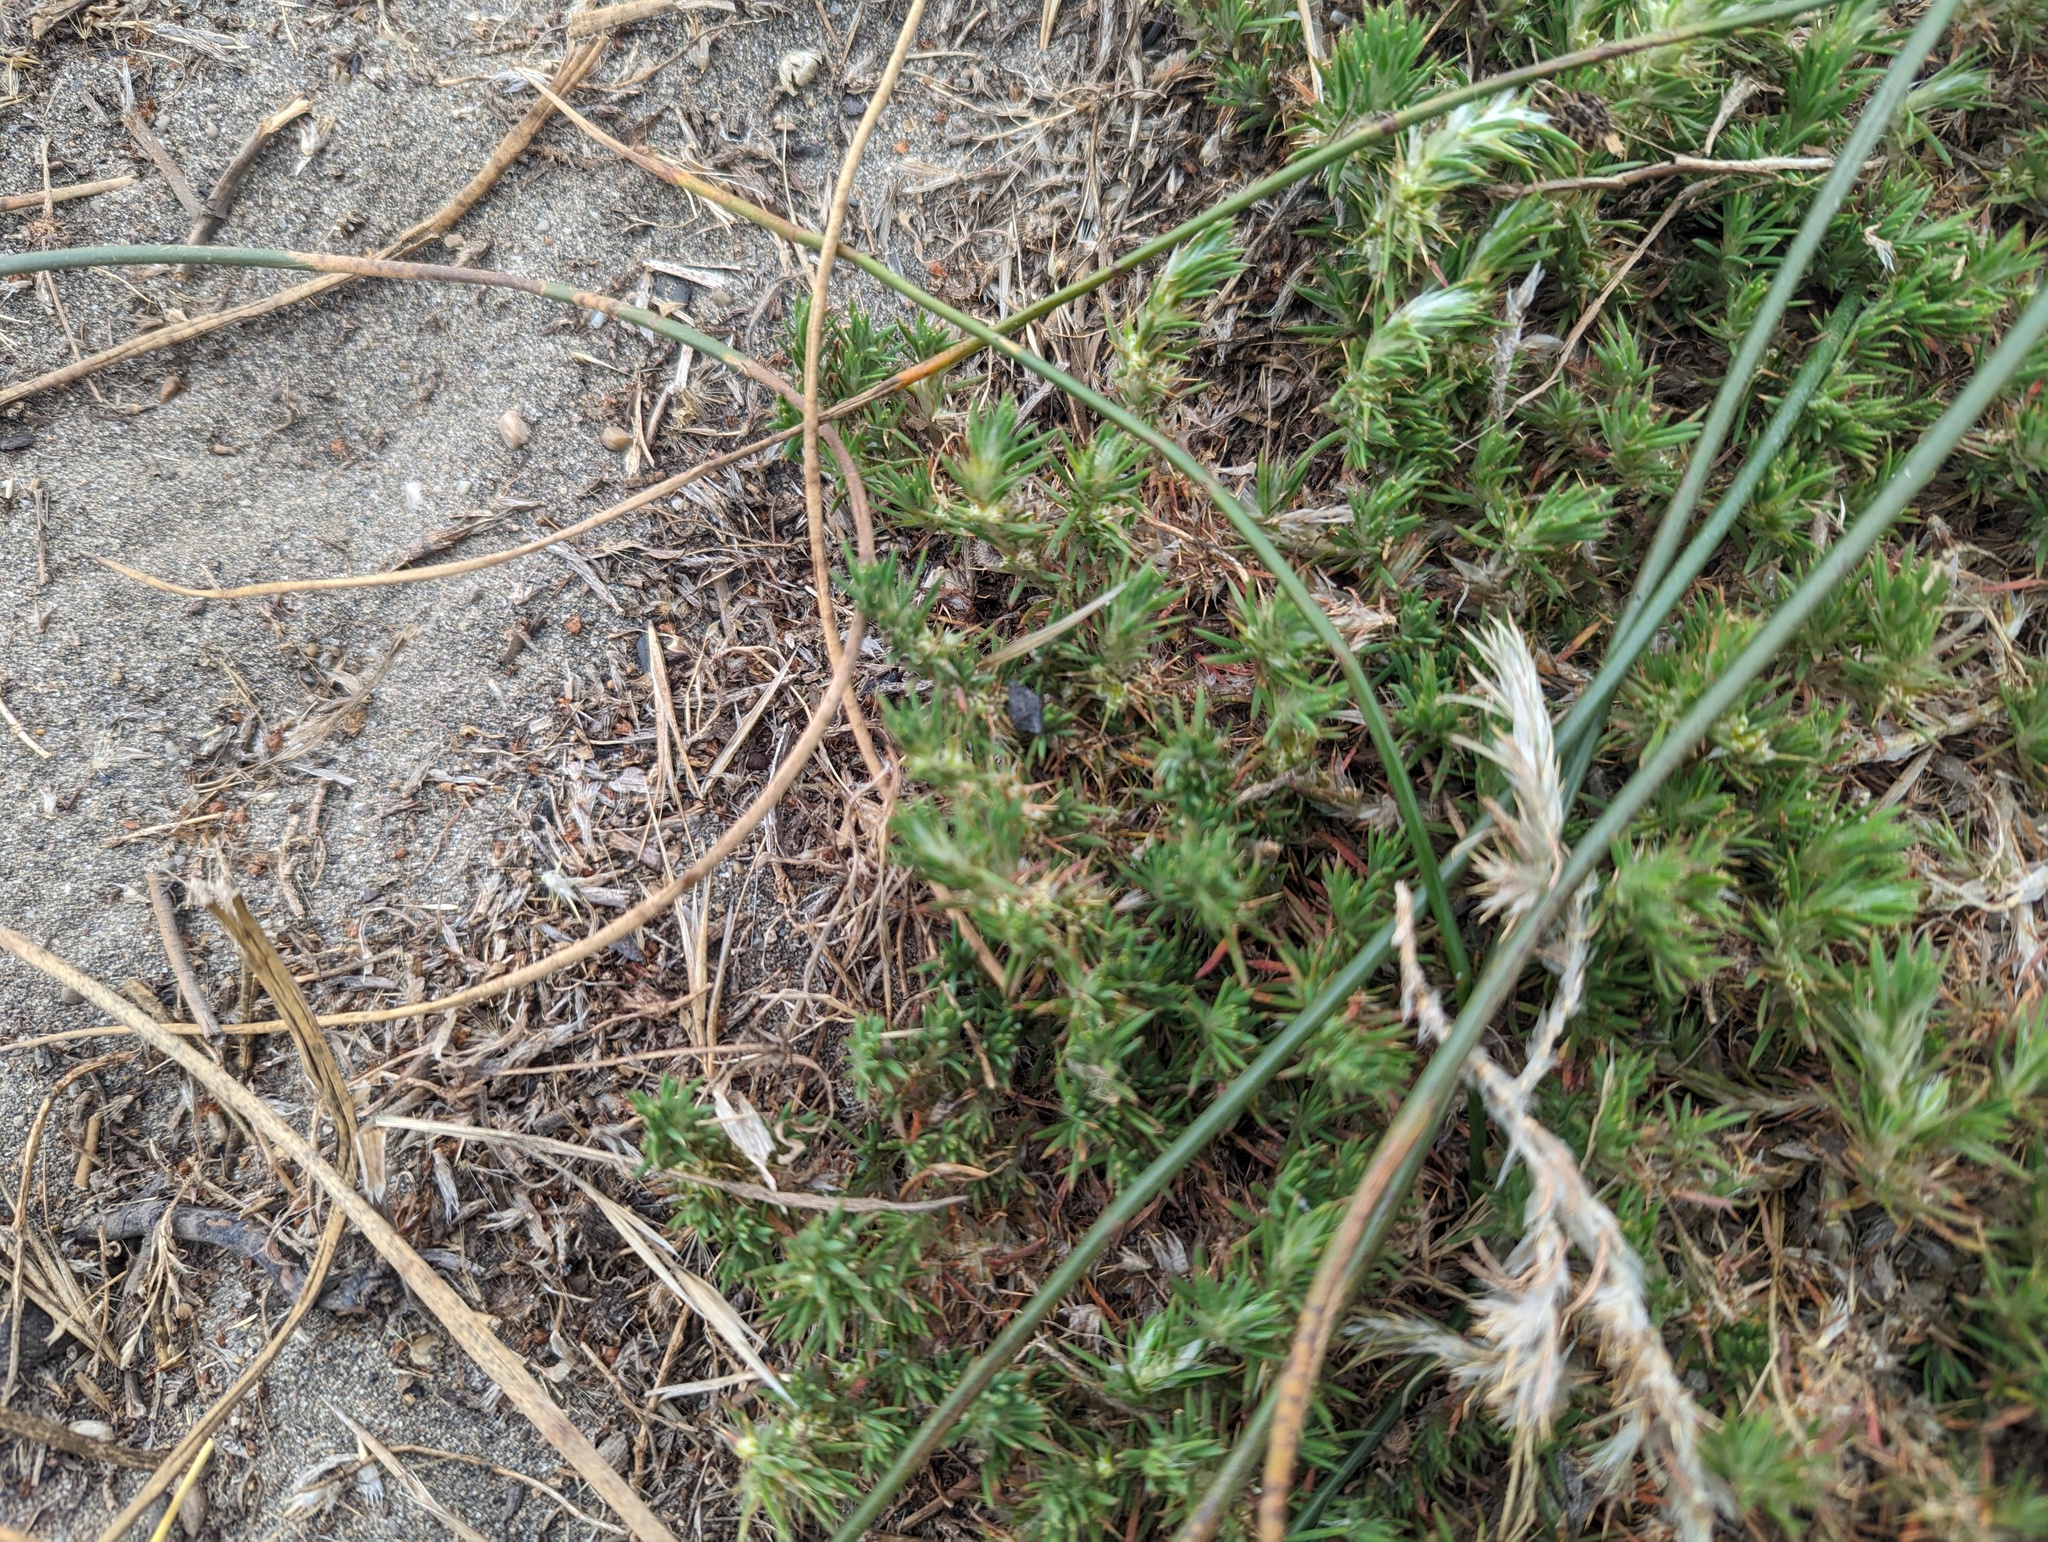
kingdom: Plantae
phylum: Tracheophyta
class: Magnoliopsida
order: Caryophyllales
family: Caryophyllaceae
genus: Cardionema
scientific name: Cardionema ramosissima
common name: Sandcarpet
